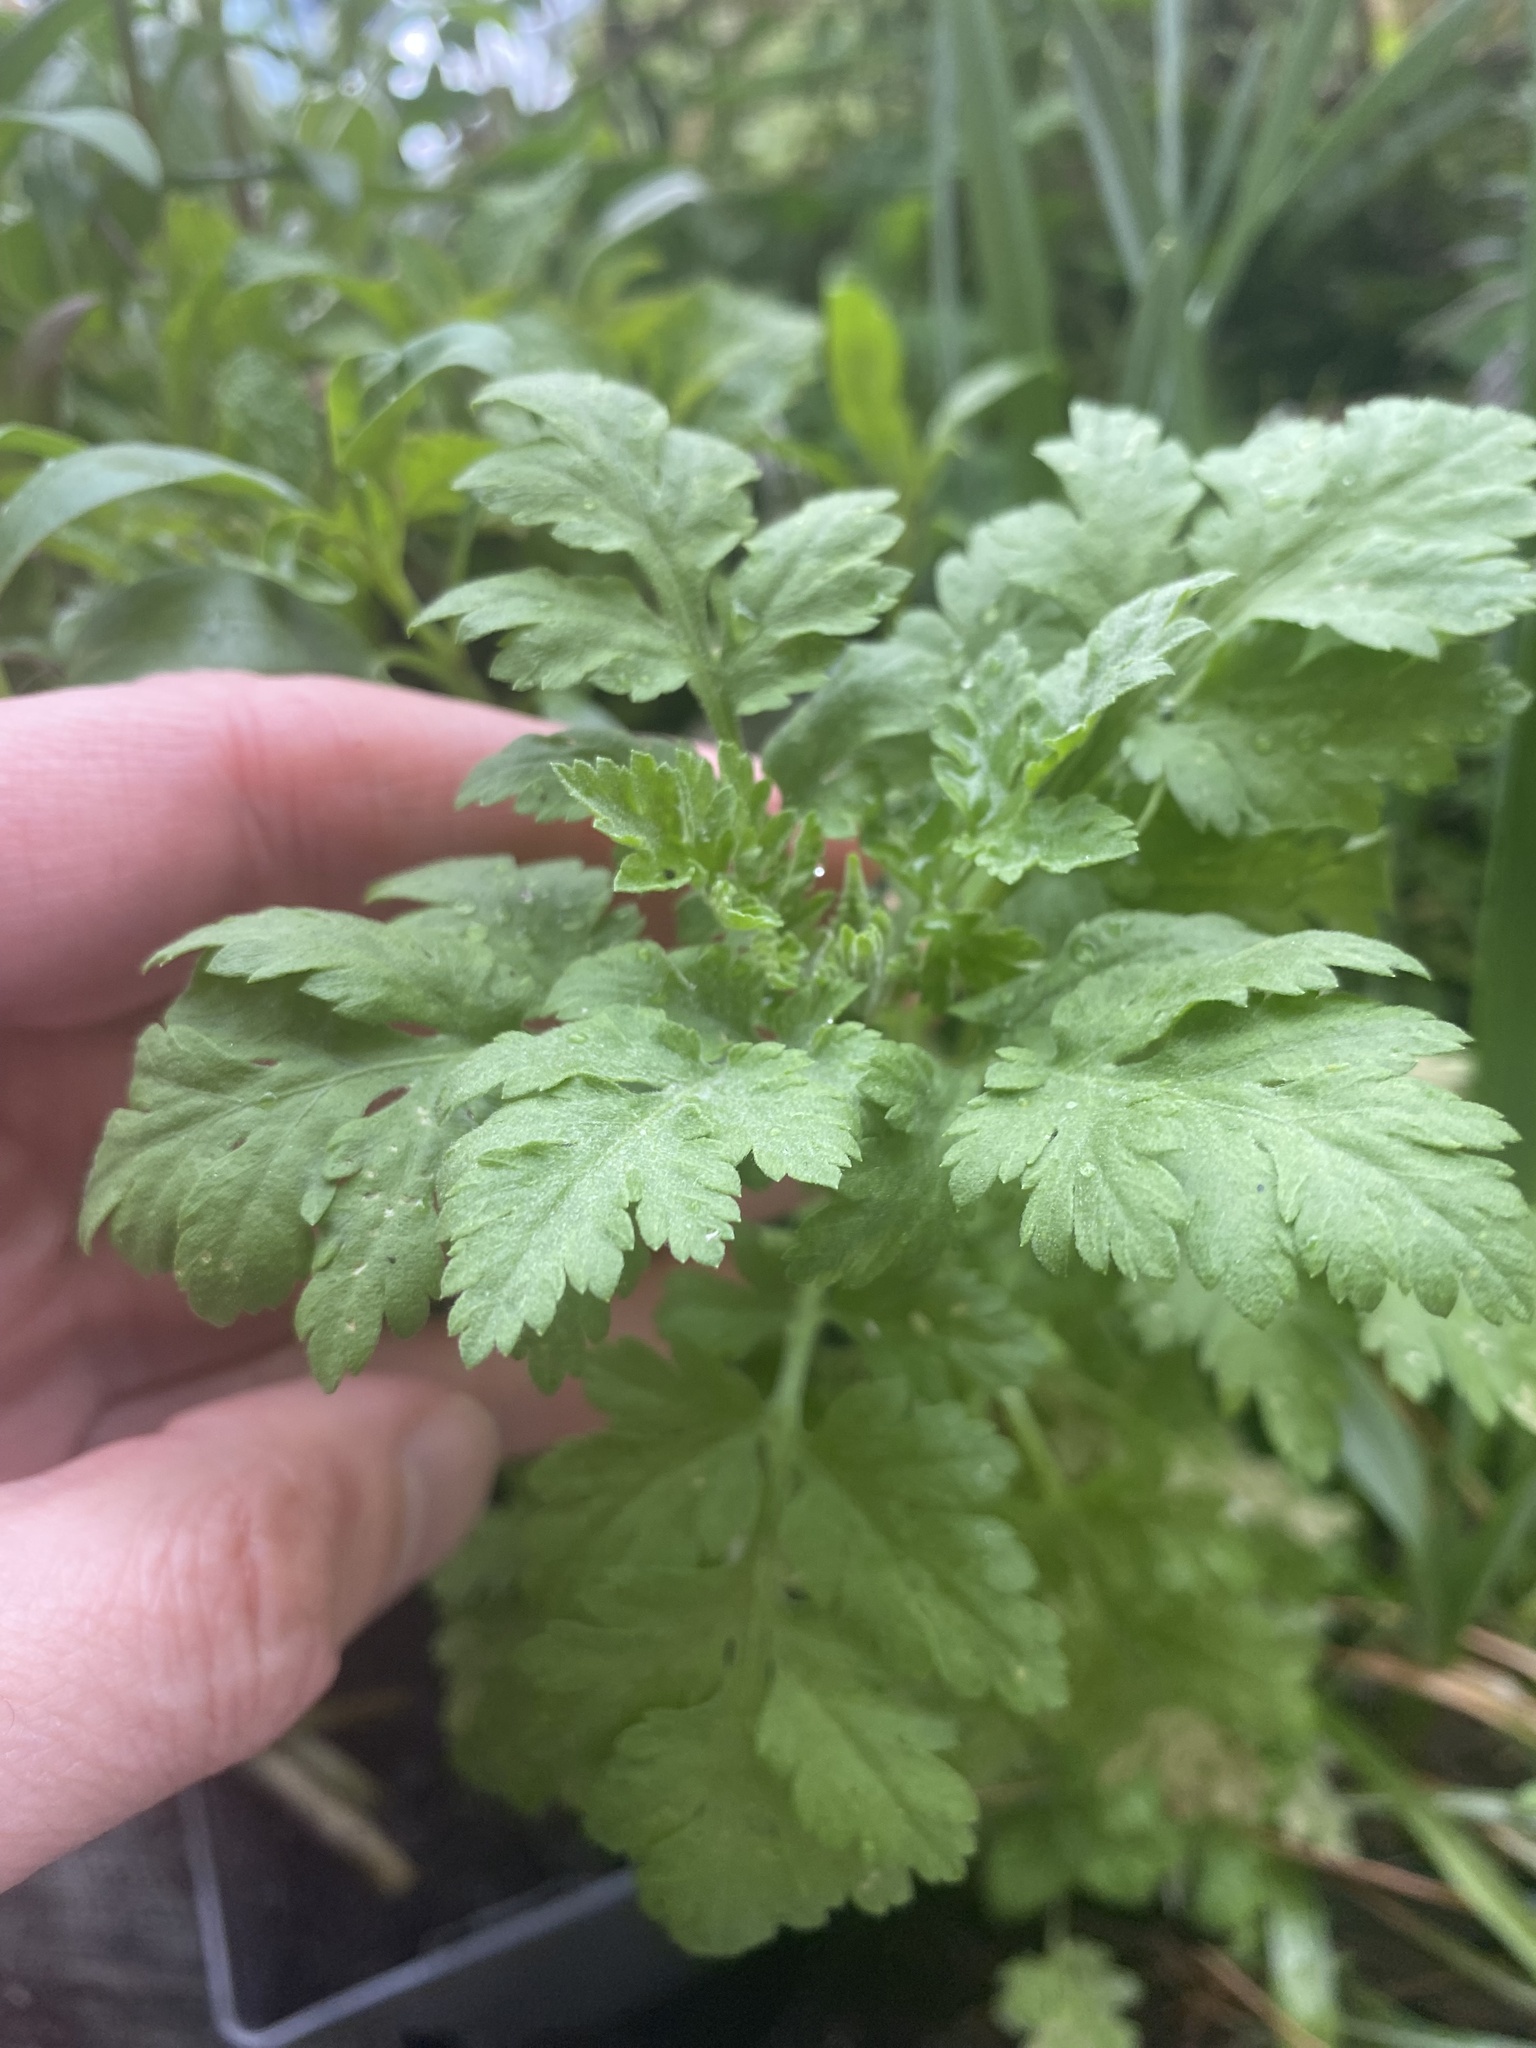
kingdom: Plantae
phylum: Tracheophyta
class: Magnoliopsida
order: Asterales
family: Asteraceae
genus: Tanacetum
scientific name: Tanacetum parthenium
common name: Feverfew
